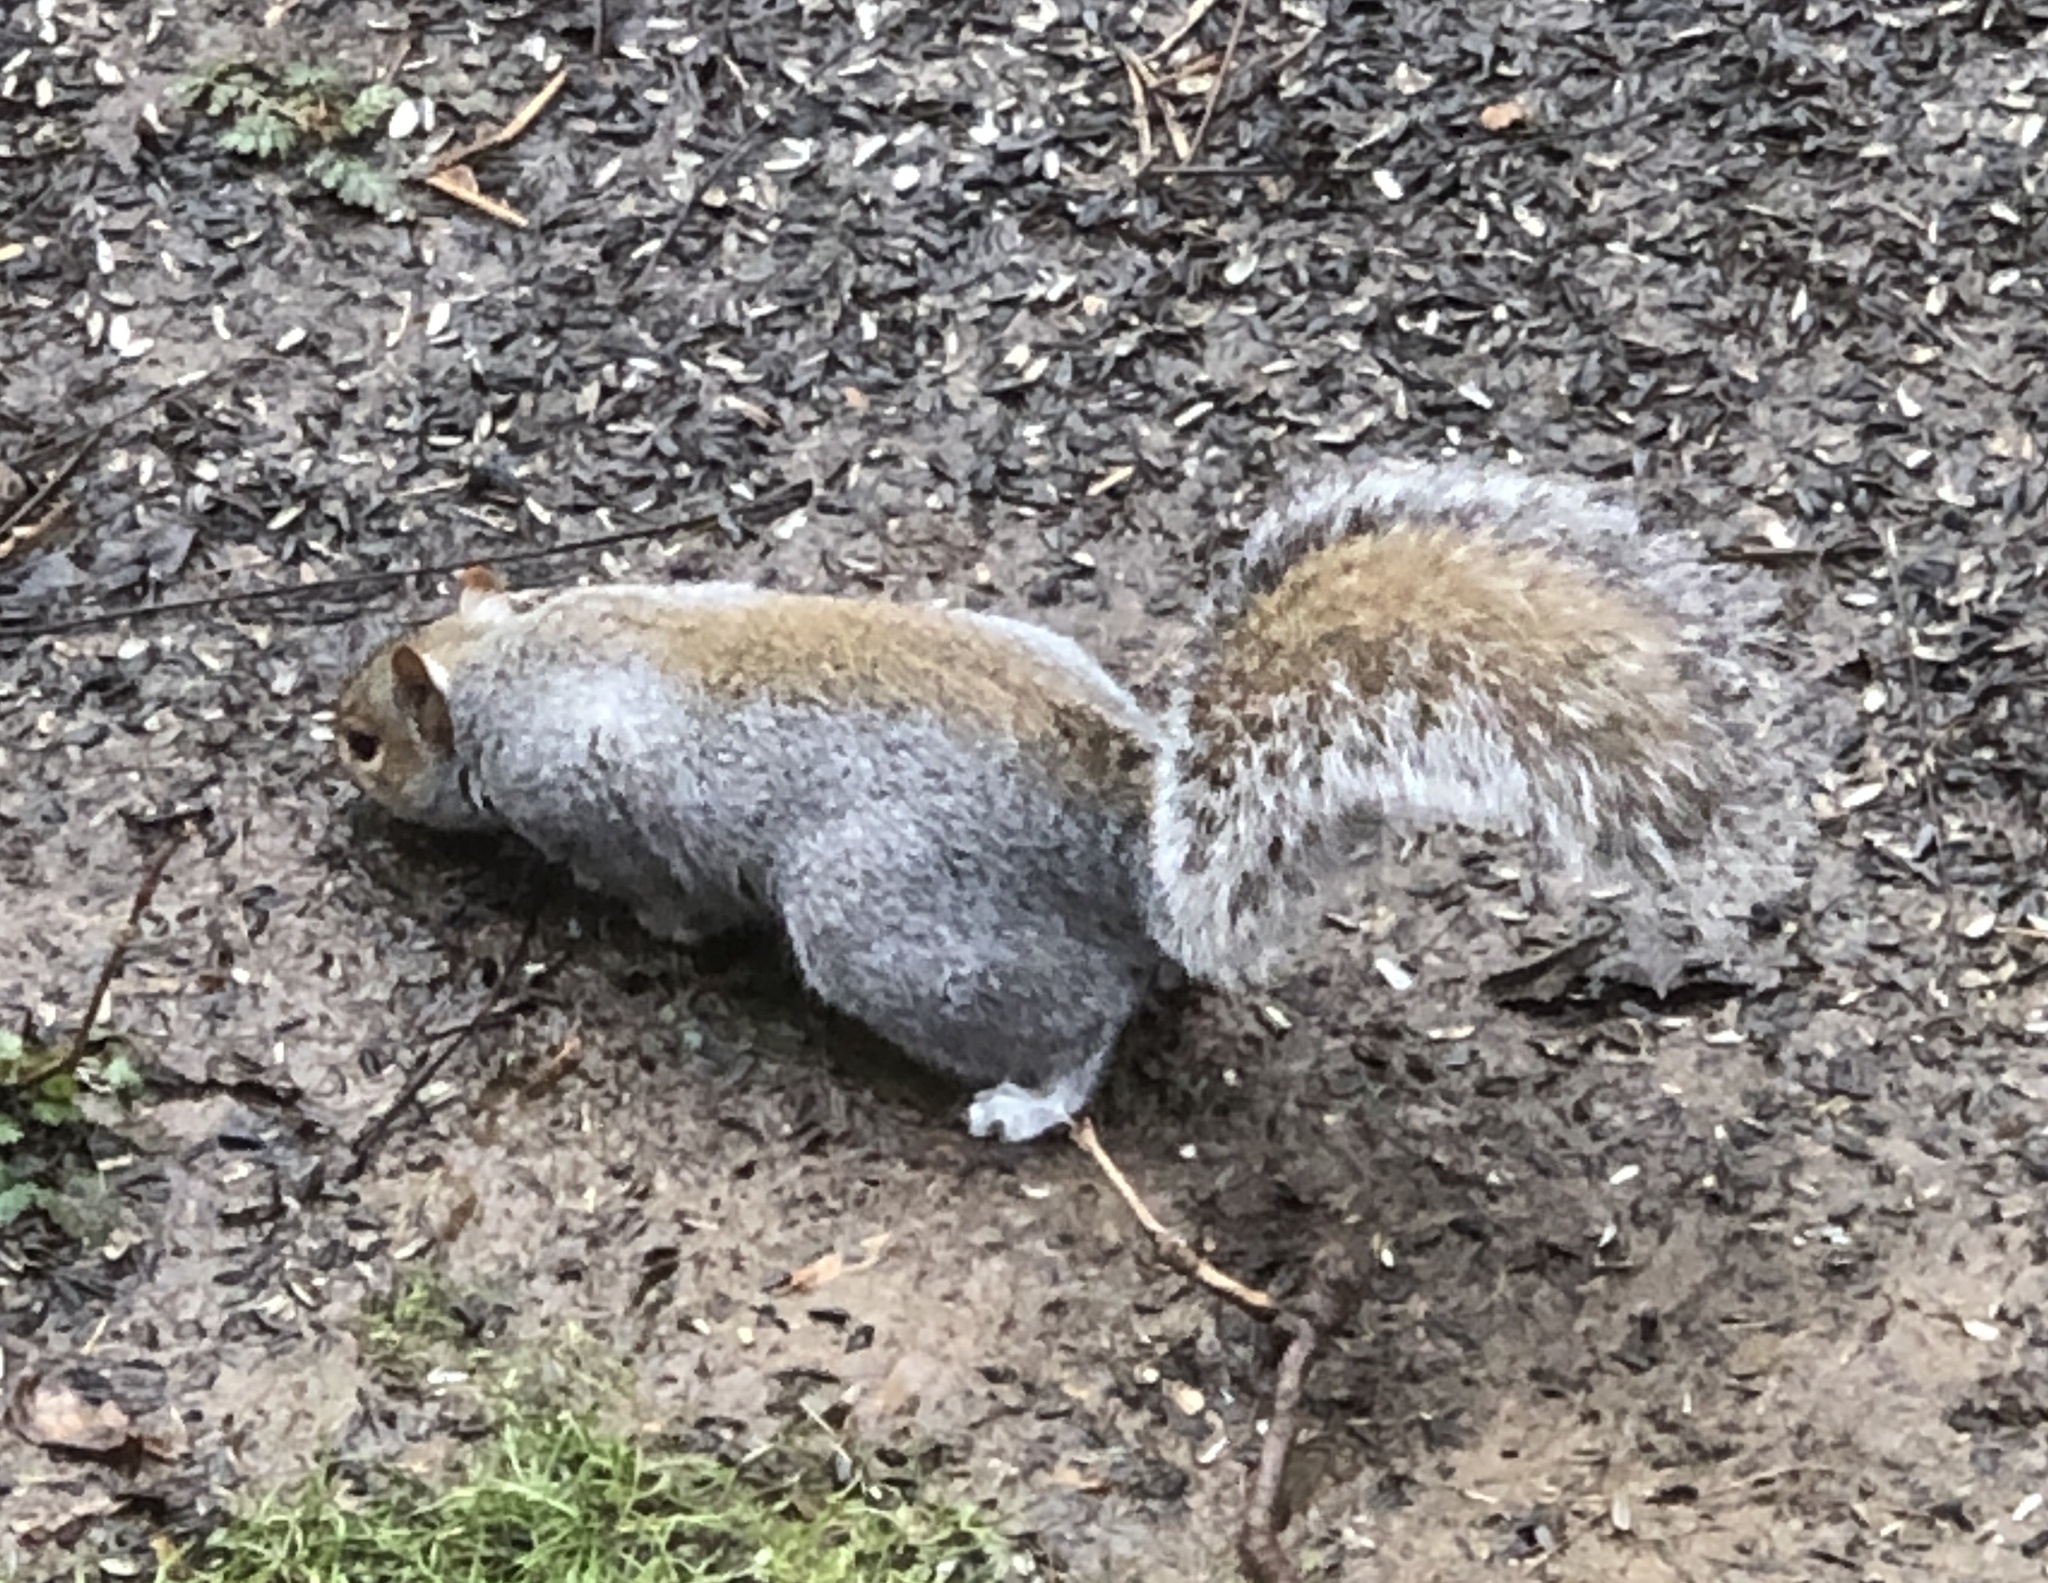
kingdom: Animalia
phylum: Chordata
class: Mammalia
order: Rodentia
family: Sciuridae
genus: Sciurus
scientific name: Sciurus carolinensis
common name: Eastern gray squirrel
